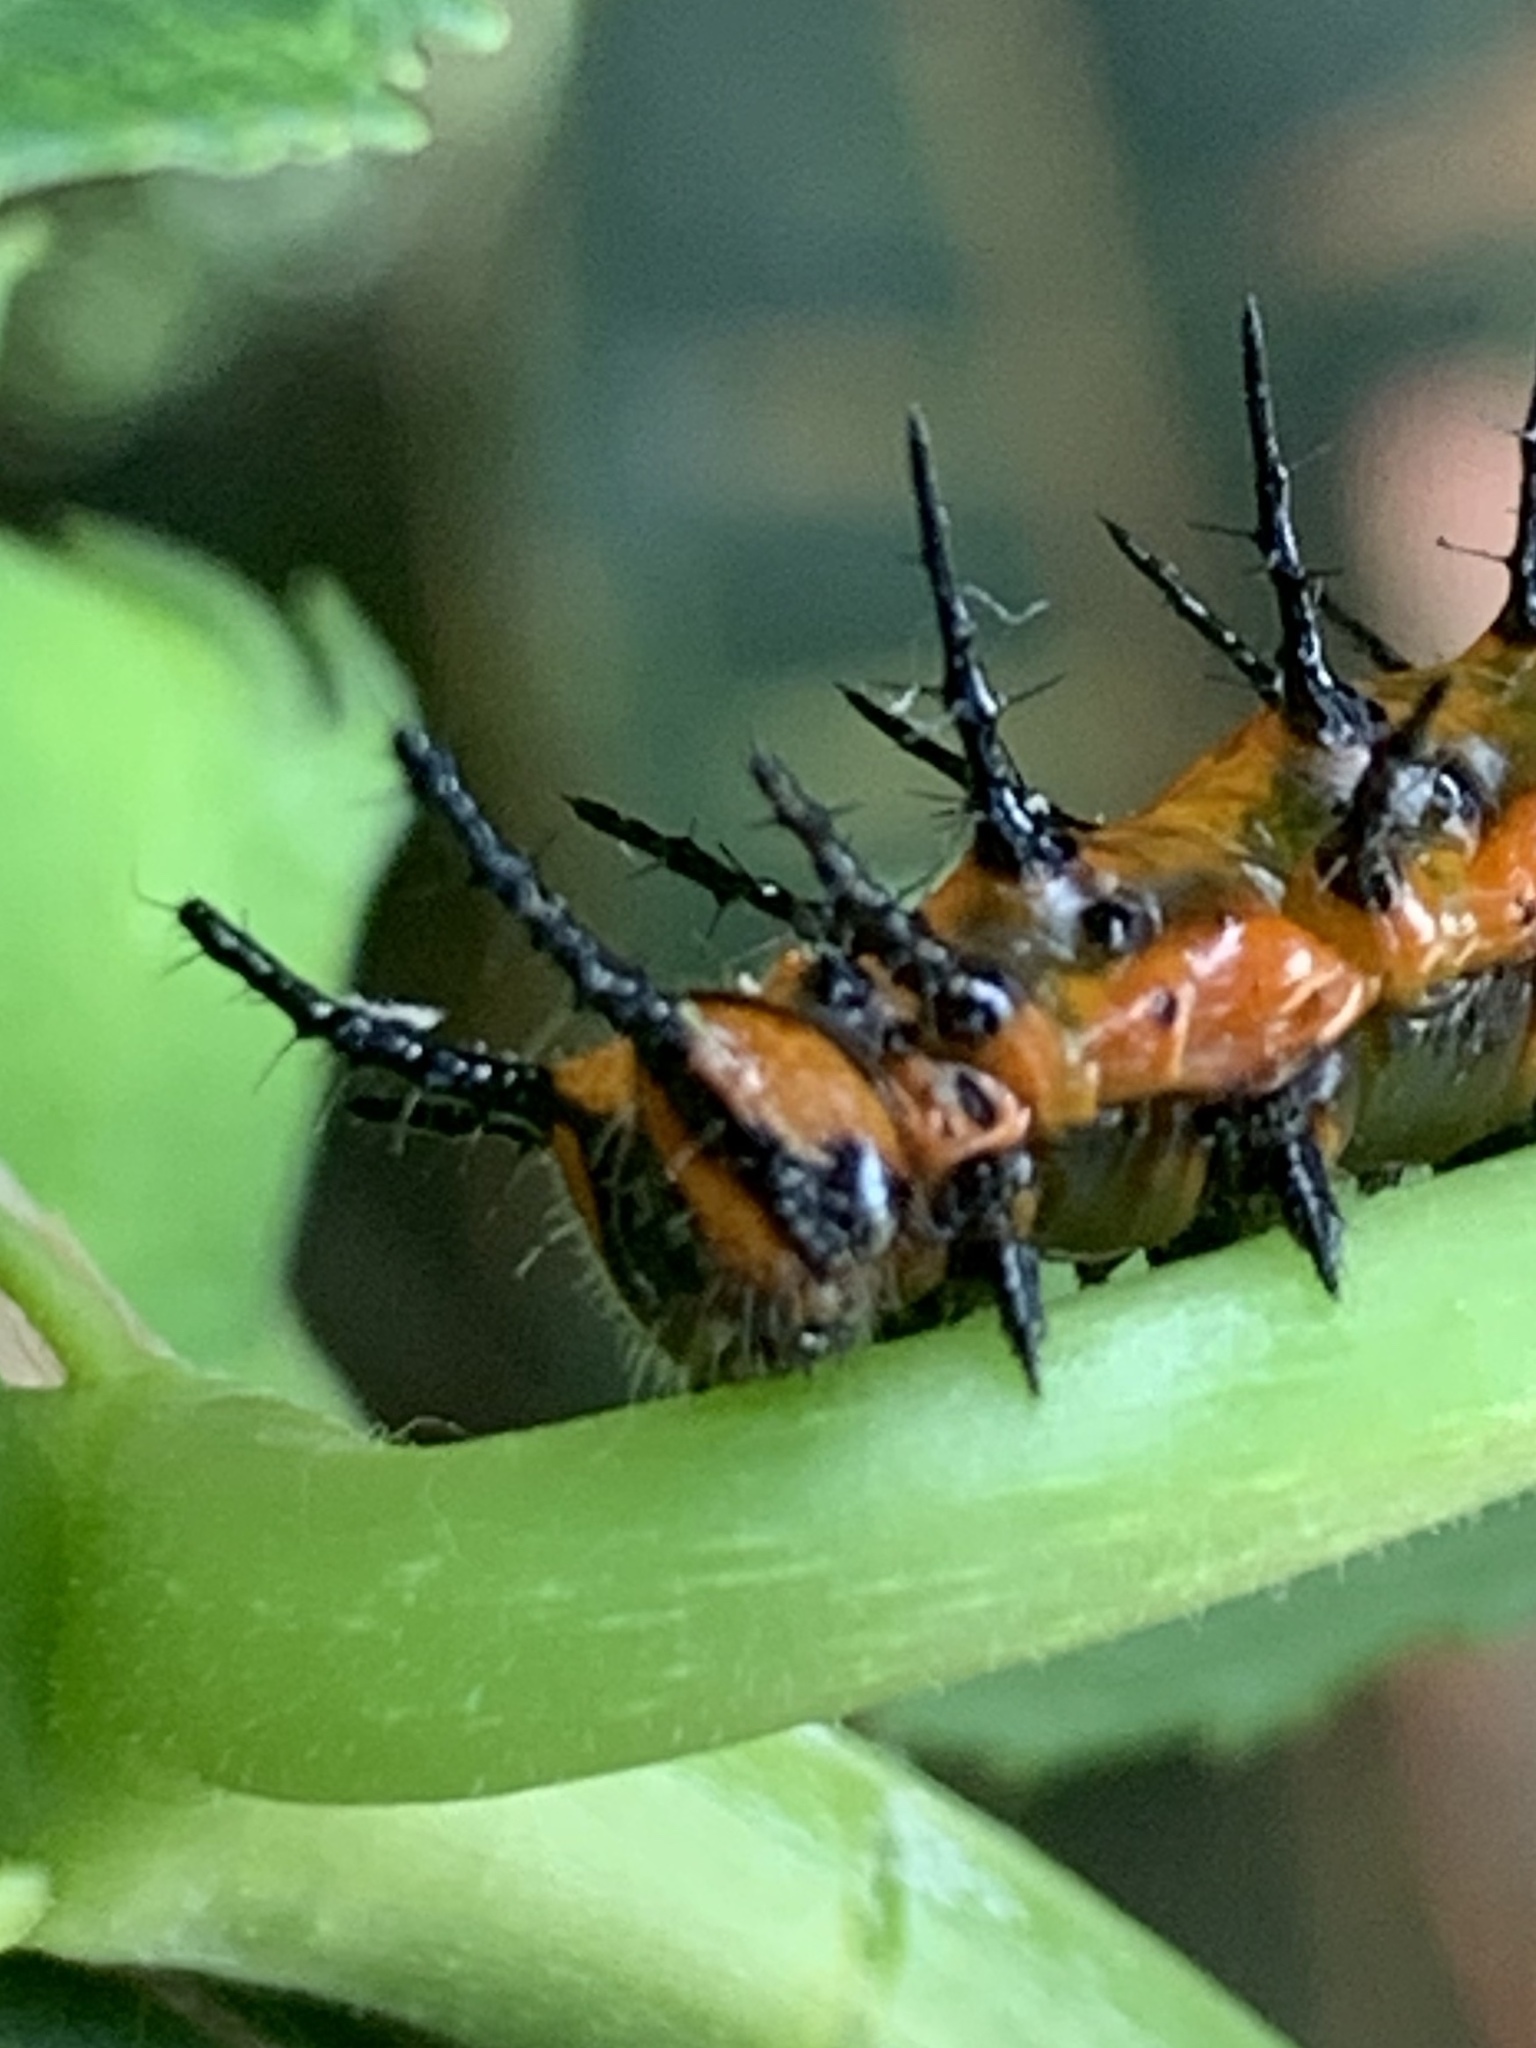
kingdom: Animalia
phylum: Arthropoda
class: Insecta
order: Lepidoptera
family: Nymphalidae
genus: Dione
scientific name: Dione vanillae
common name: Gulf fritillary
